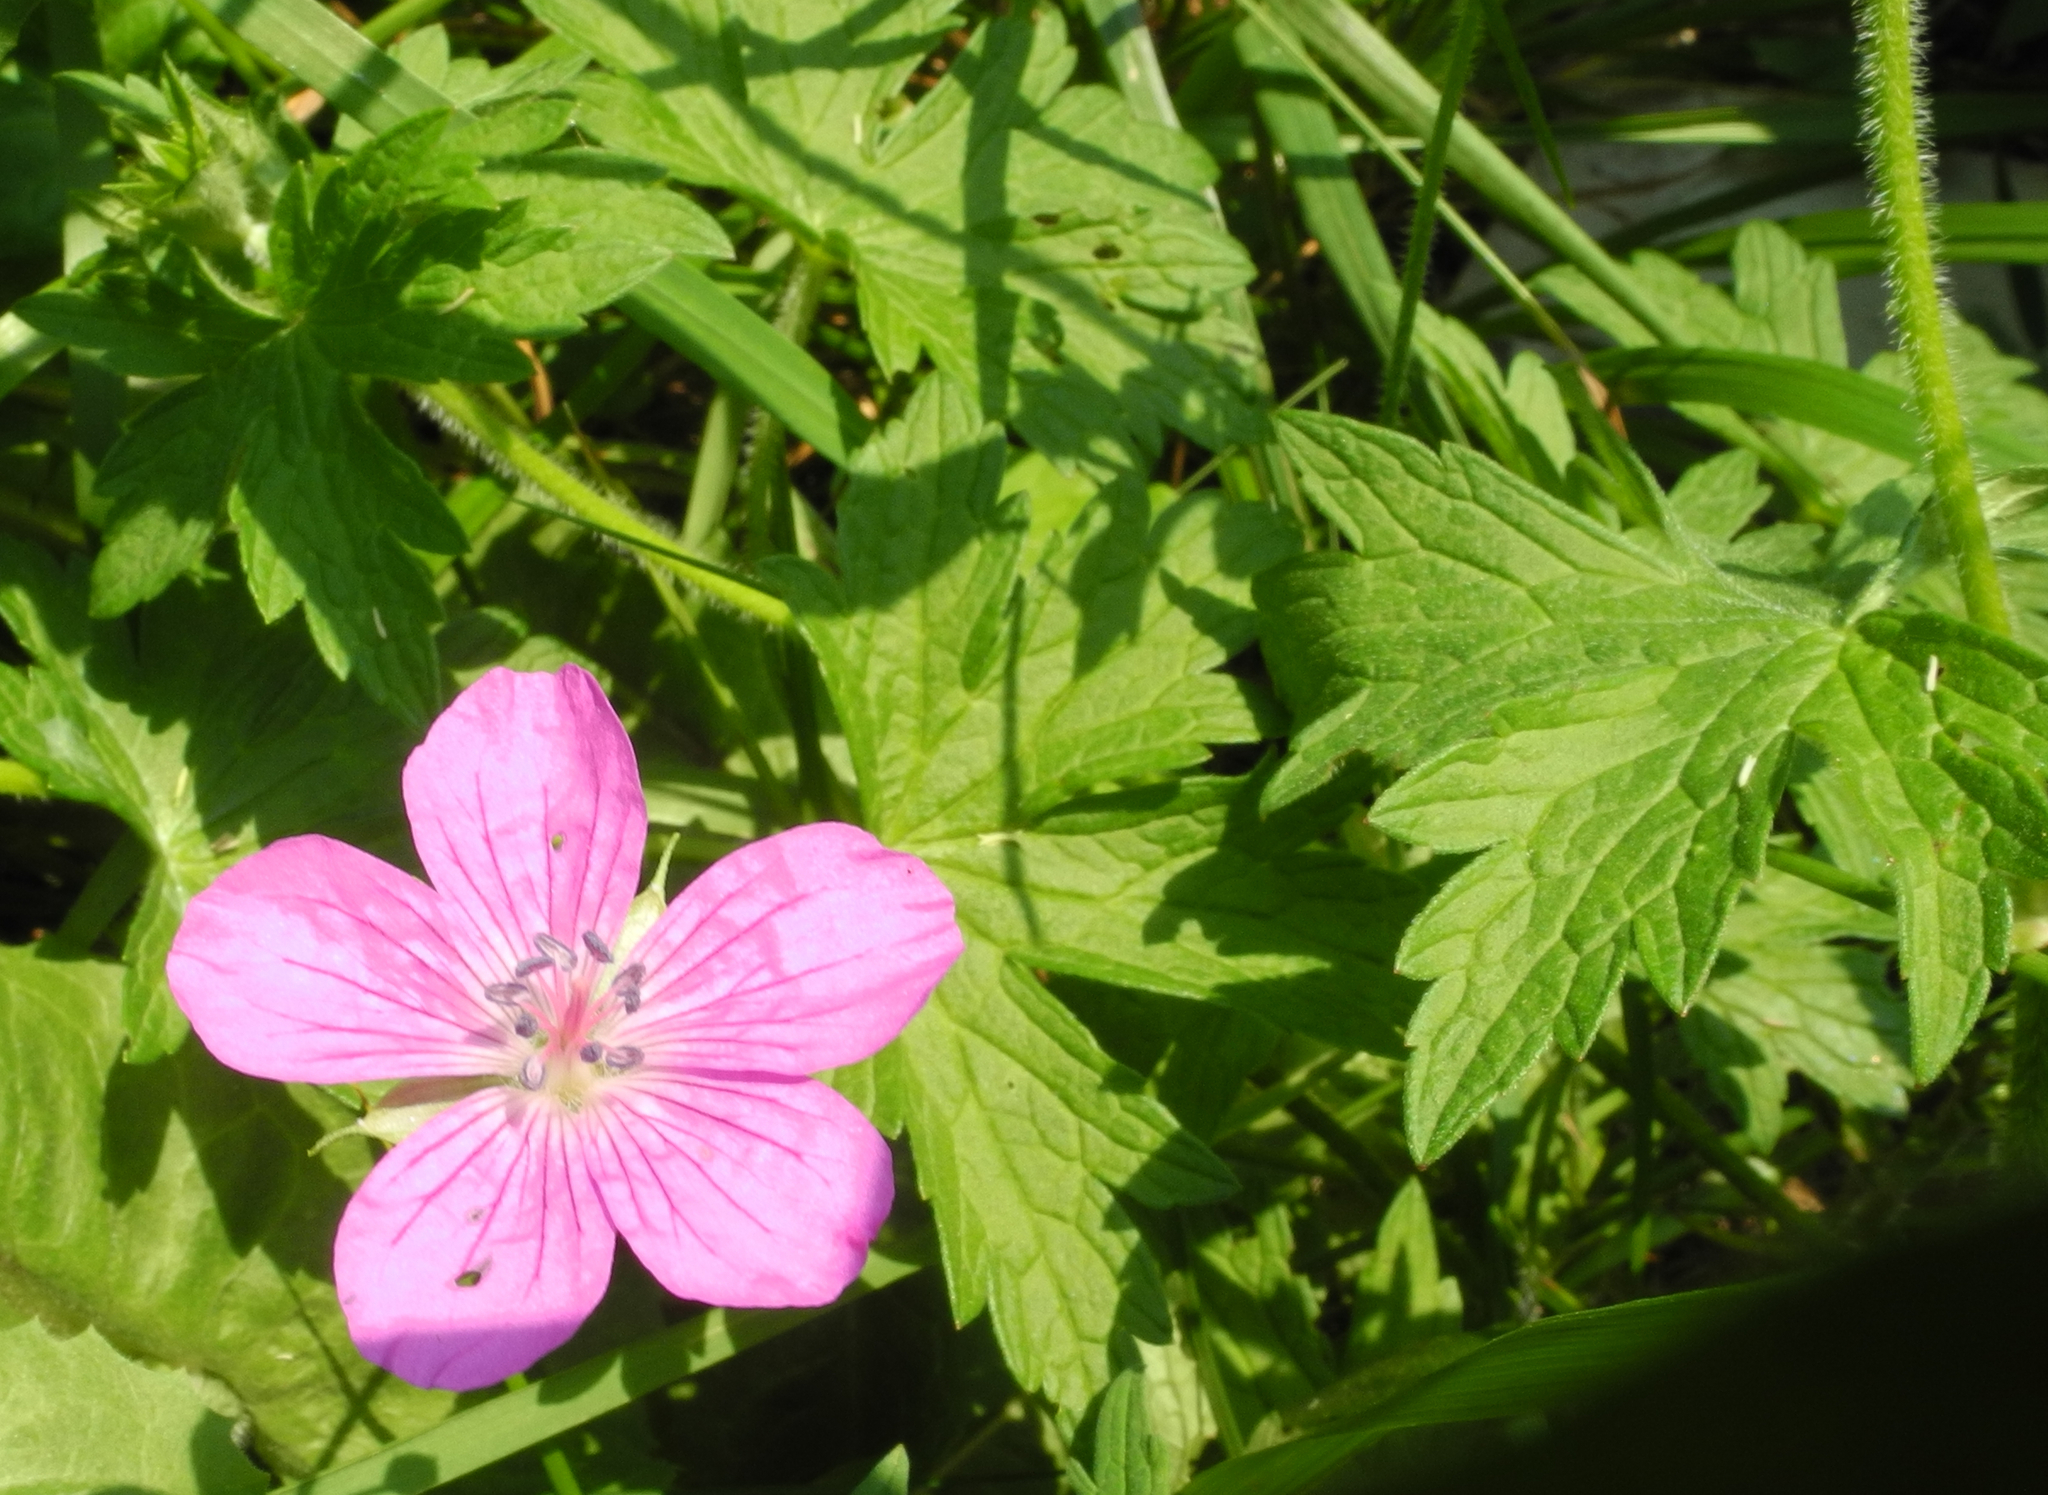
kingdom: Plantae
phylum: Tracheophyta
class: Magnoliopsida
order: Geraniales
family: Geraniaceae
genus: Geranium
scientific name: Geranium palustre
